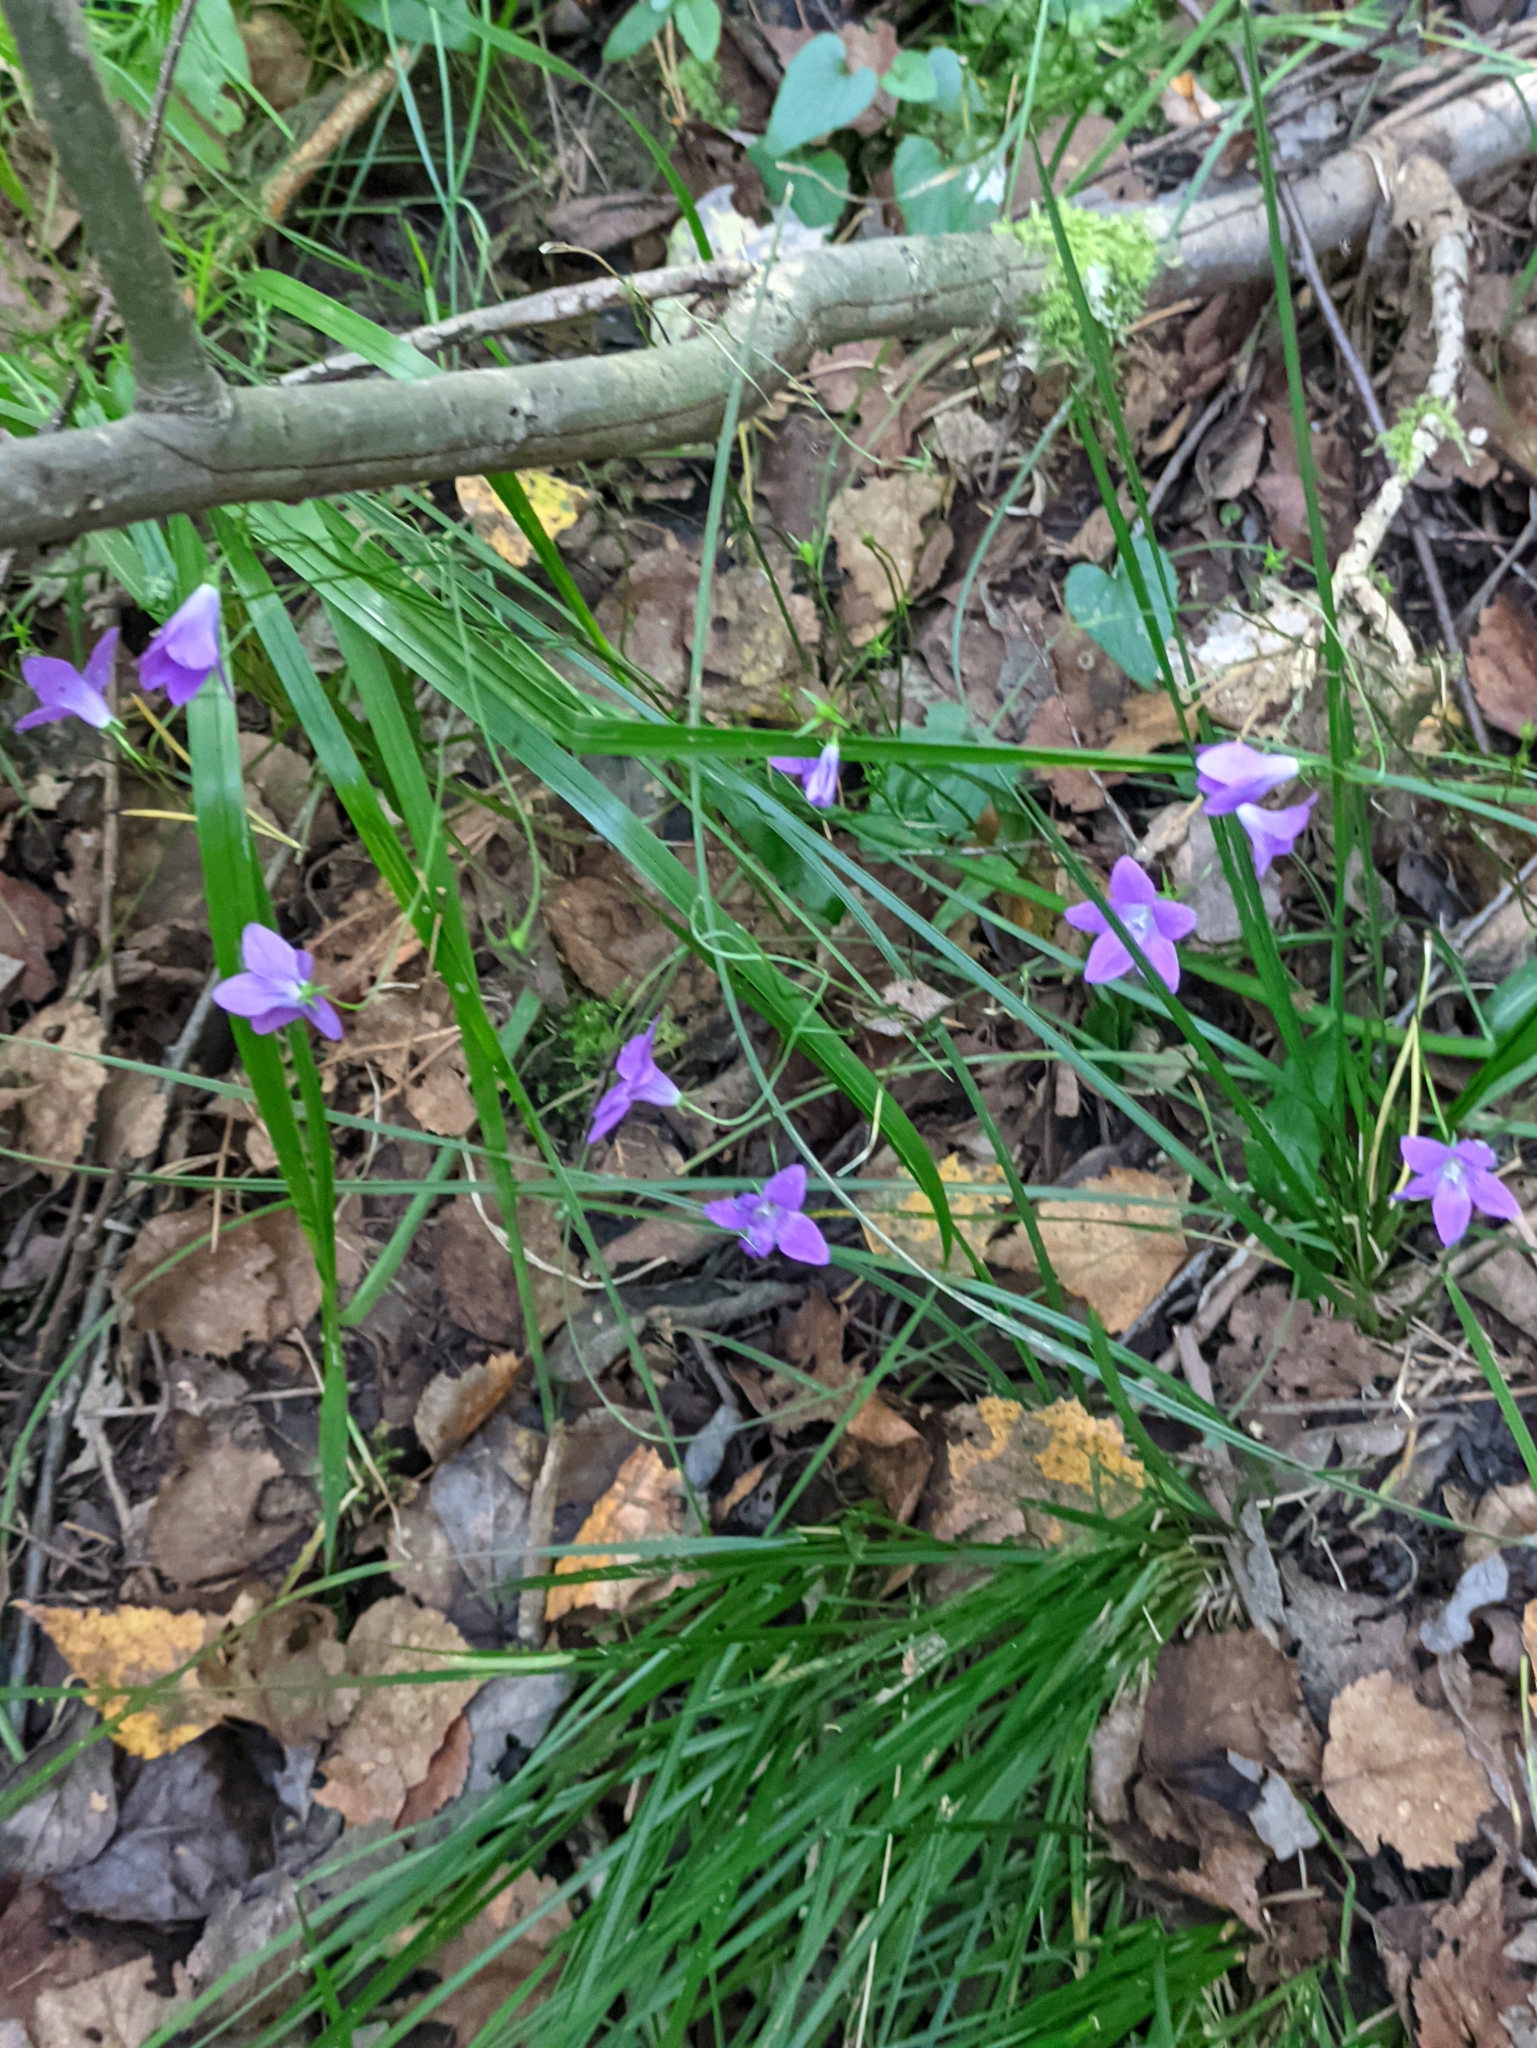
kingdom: Plantae
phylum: Tracheophyta
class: Magnoliopsida
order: Asterales
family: Campanulaceae
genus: Campanula
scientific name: Campanula patula
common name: Spreading bellflower
